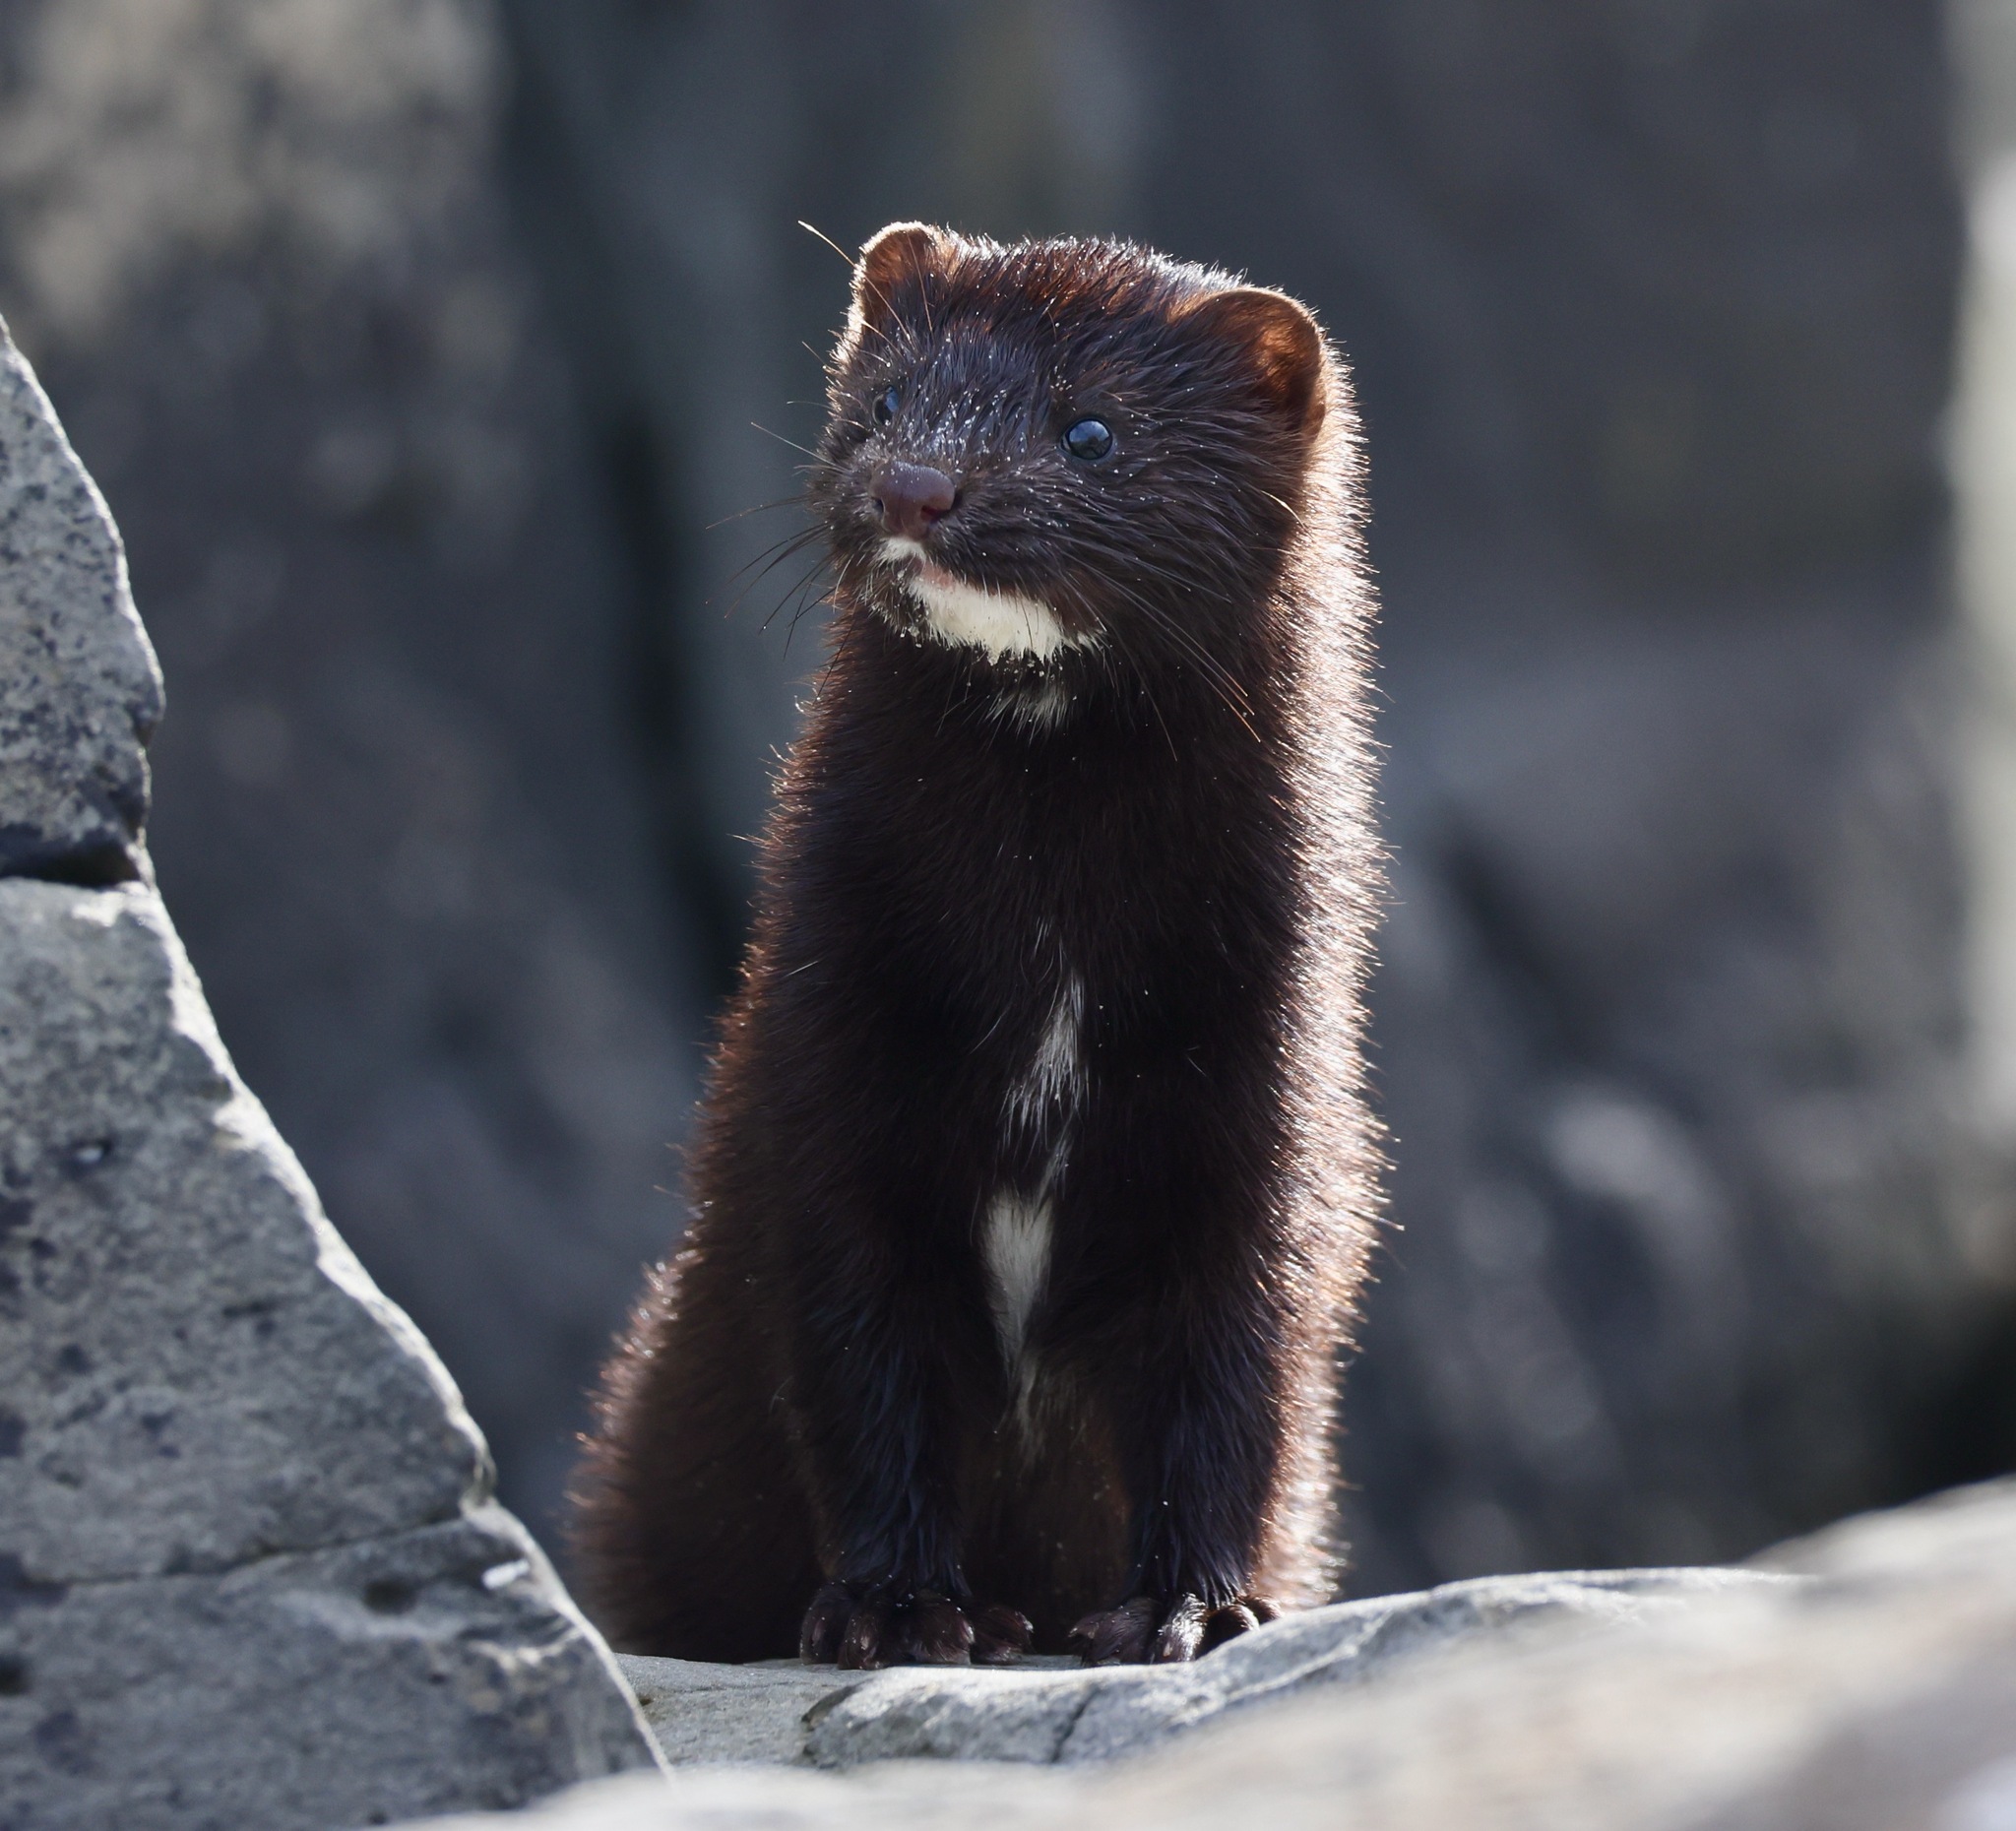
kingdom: Animalia
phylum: Chordata
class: Mammalia
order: Carnivora
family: Mustelidae
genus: Mustela
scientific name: Mustela
